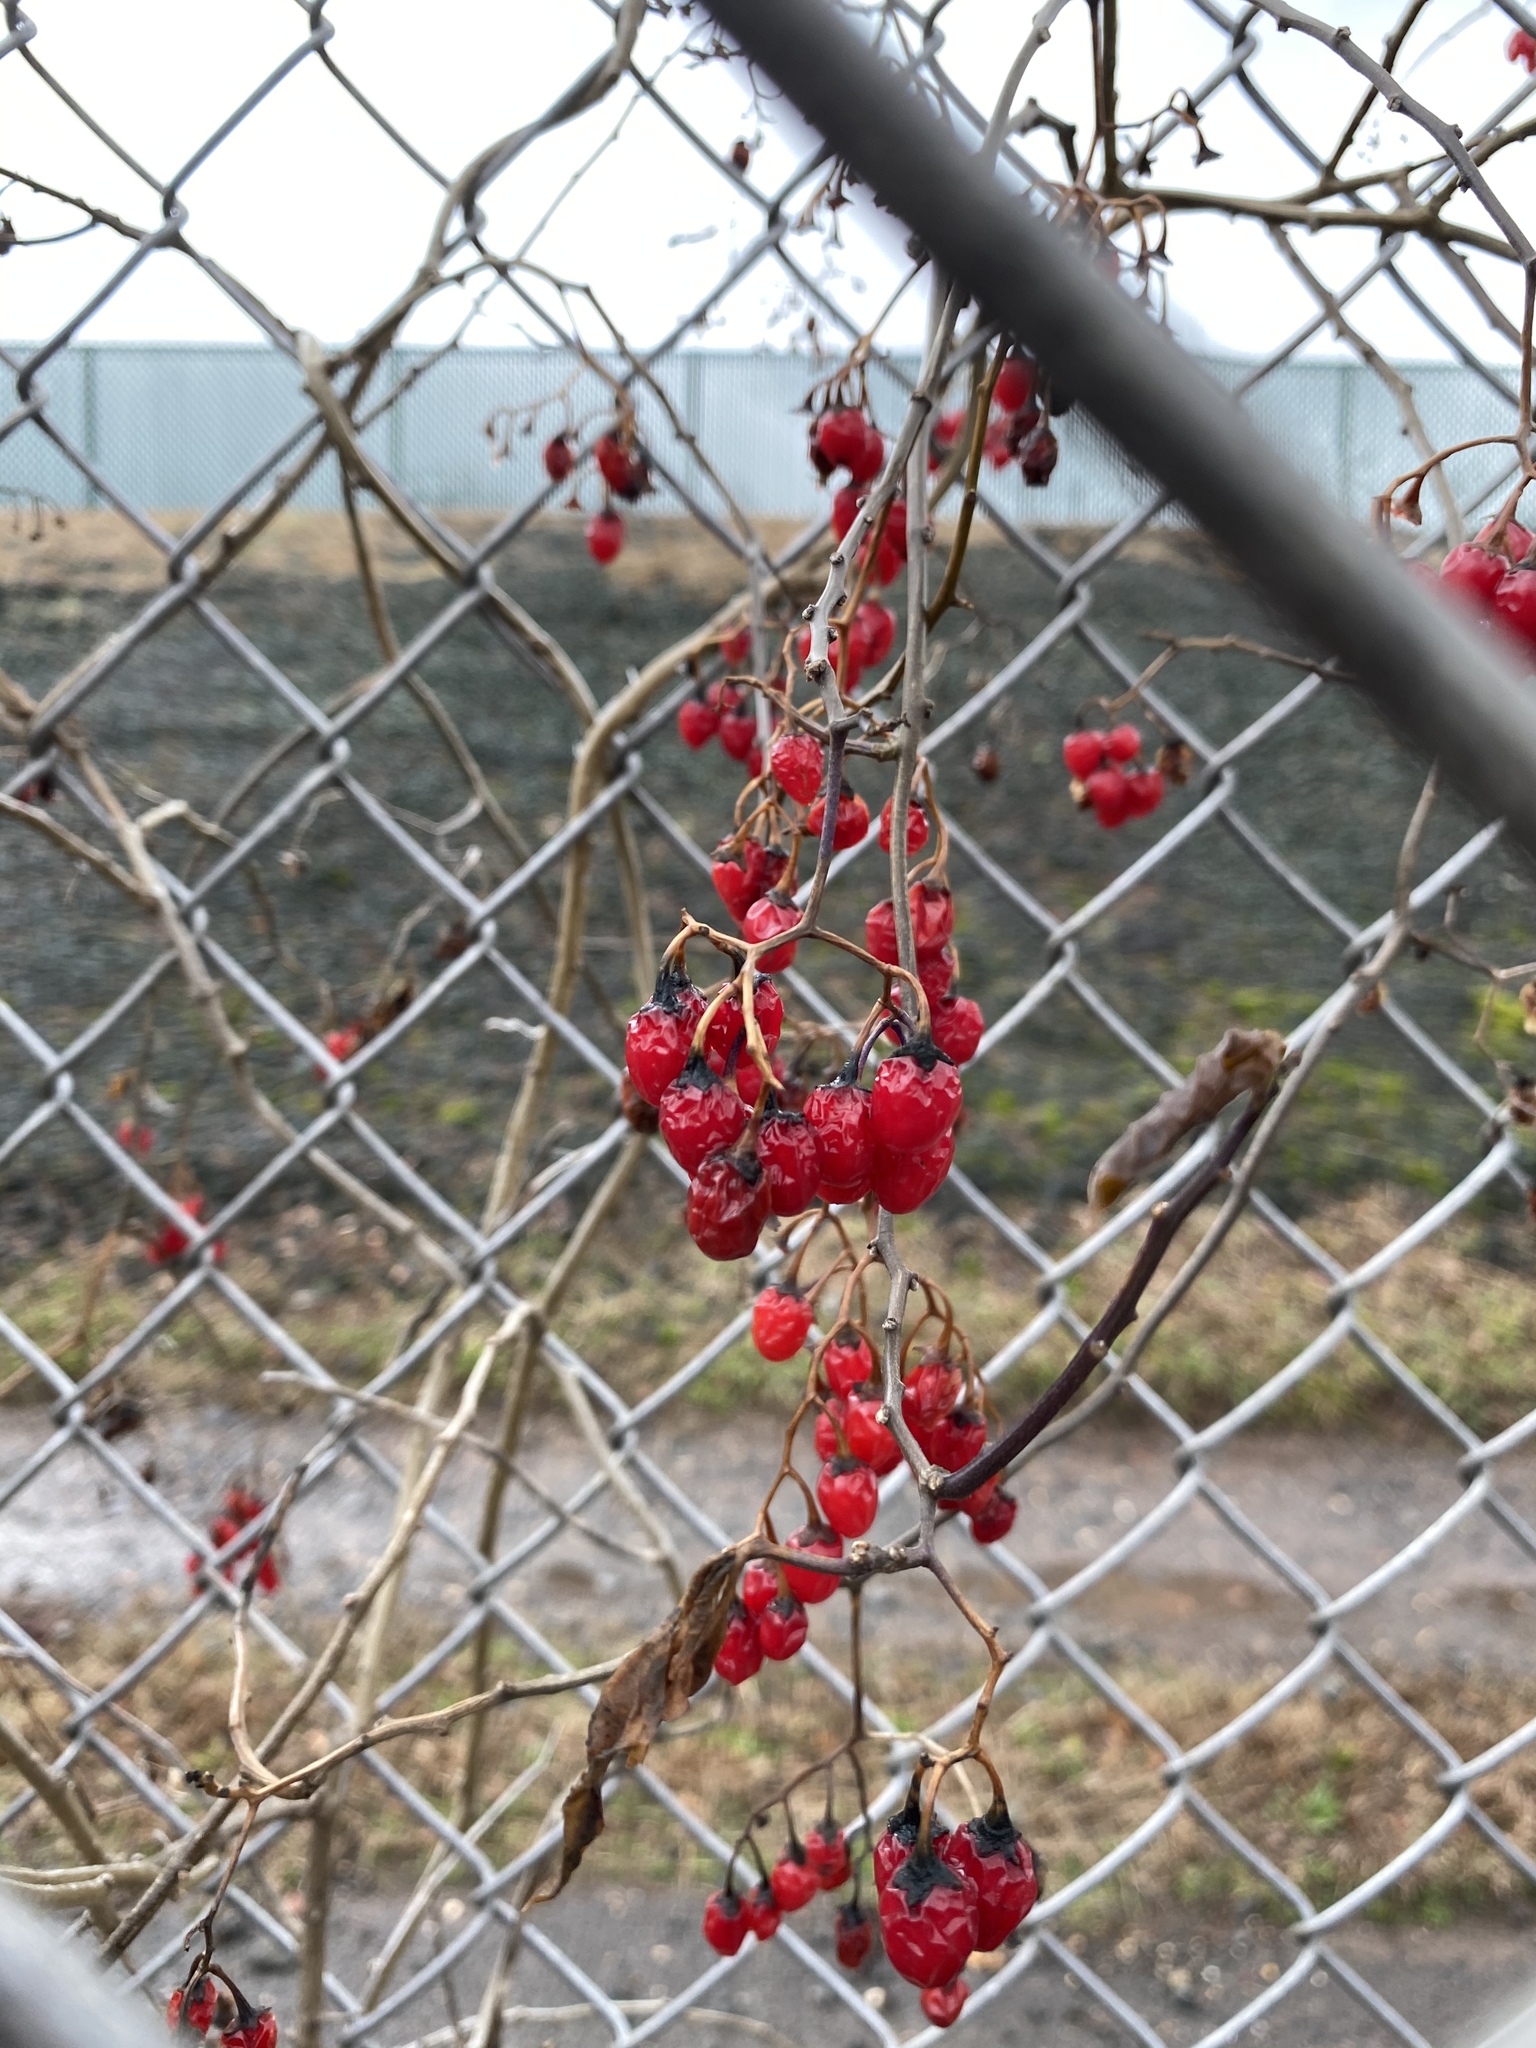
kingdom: Plantae
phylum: Tracheophyta
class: Magnoliopsida
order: Solanales
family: Solanaceae
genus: Solanum
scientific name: Solanum dulcamara
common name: Climbing nightshade
